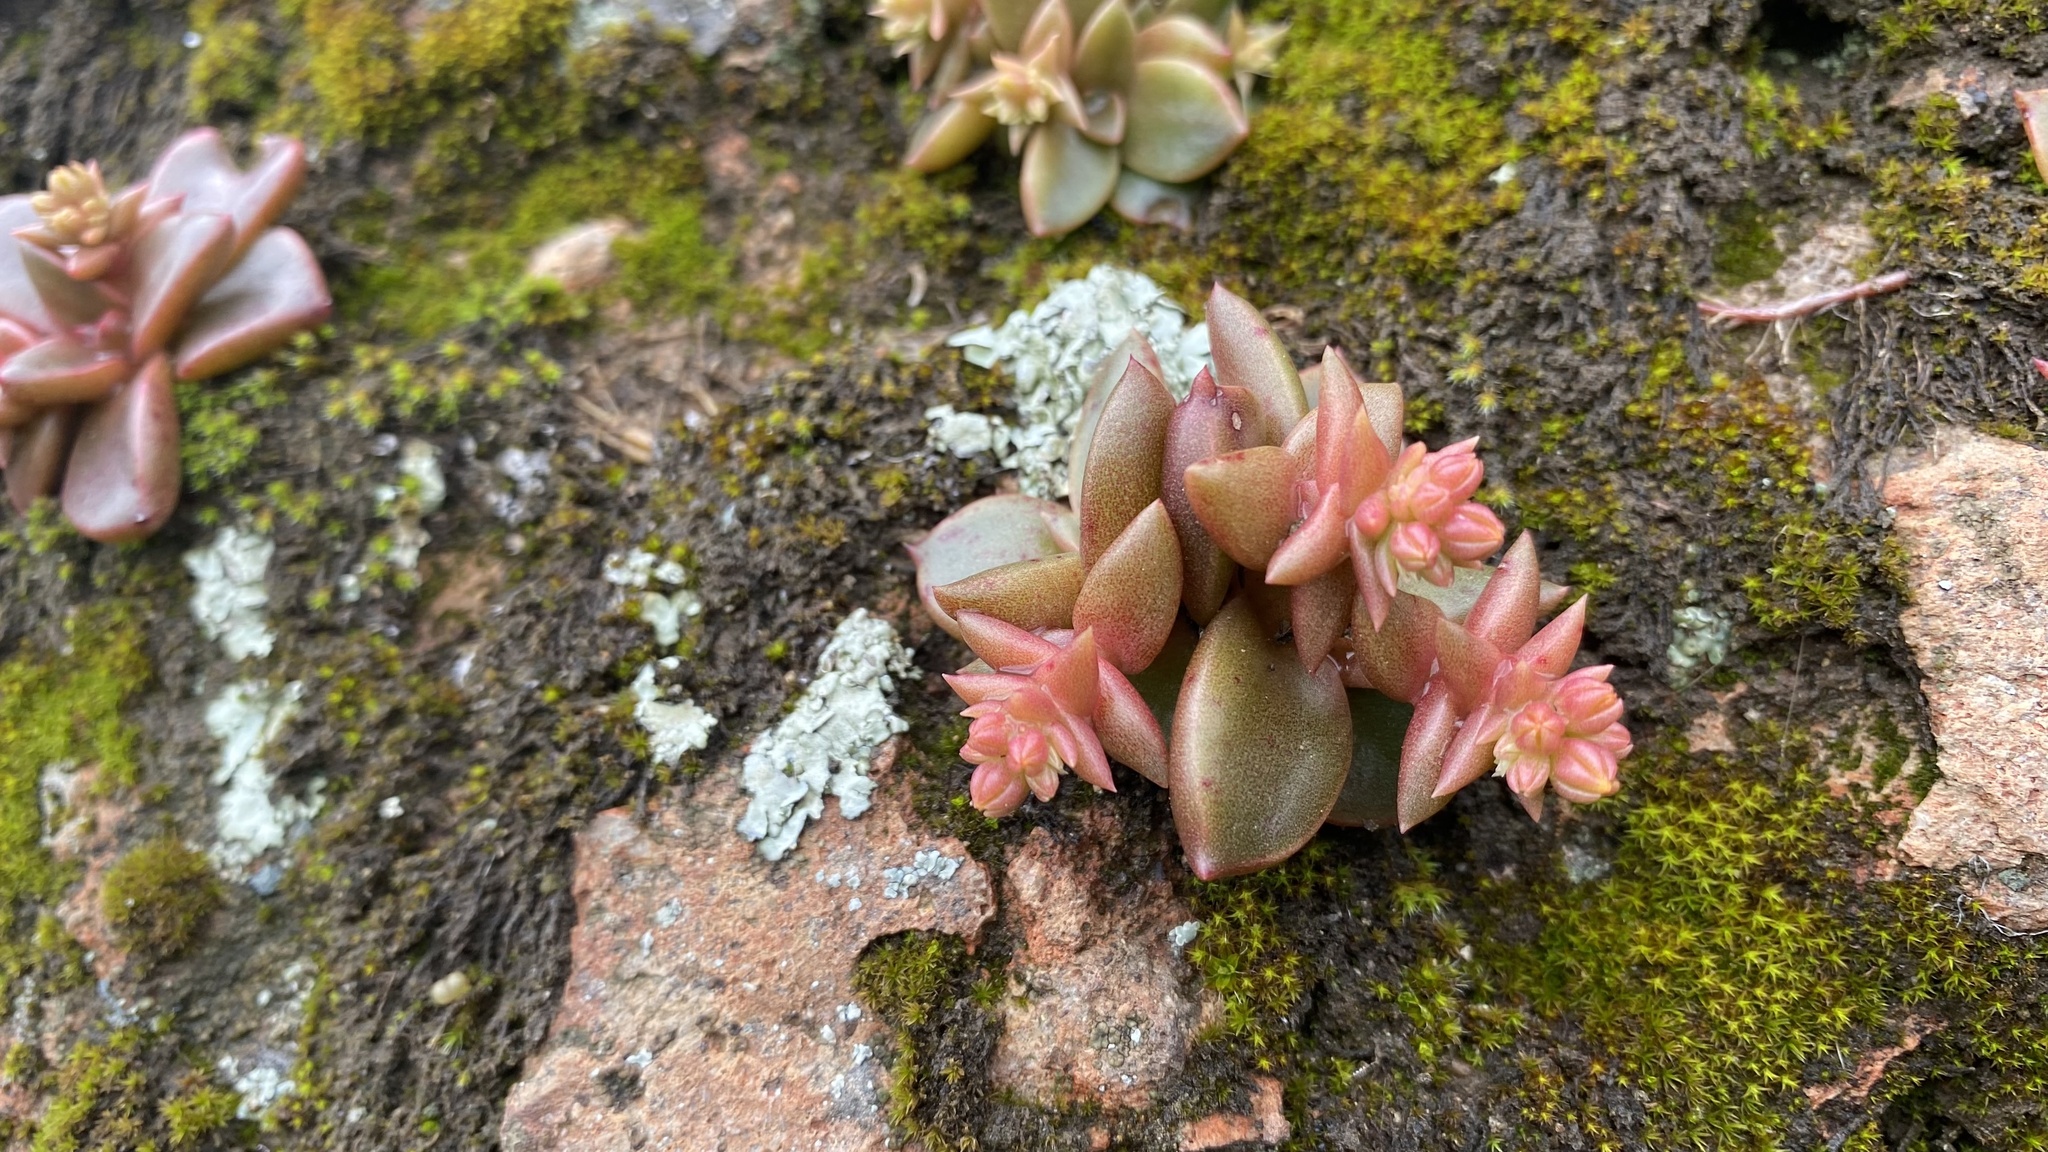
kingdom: Plantae
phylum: Tracheophyta
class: Magnoliopsida
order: Saxifragales
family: Crassulaceae
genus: Dudleya
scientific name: Dudleya cymosa
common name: Canyon dudleya
